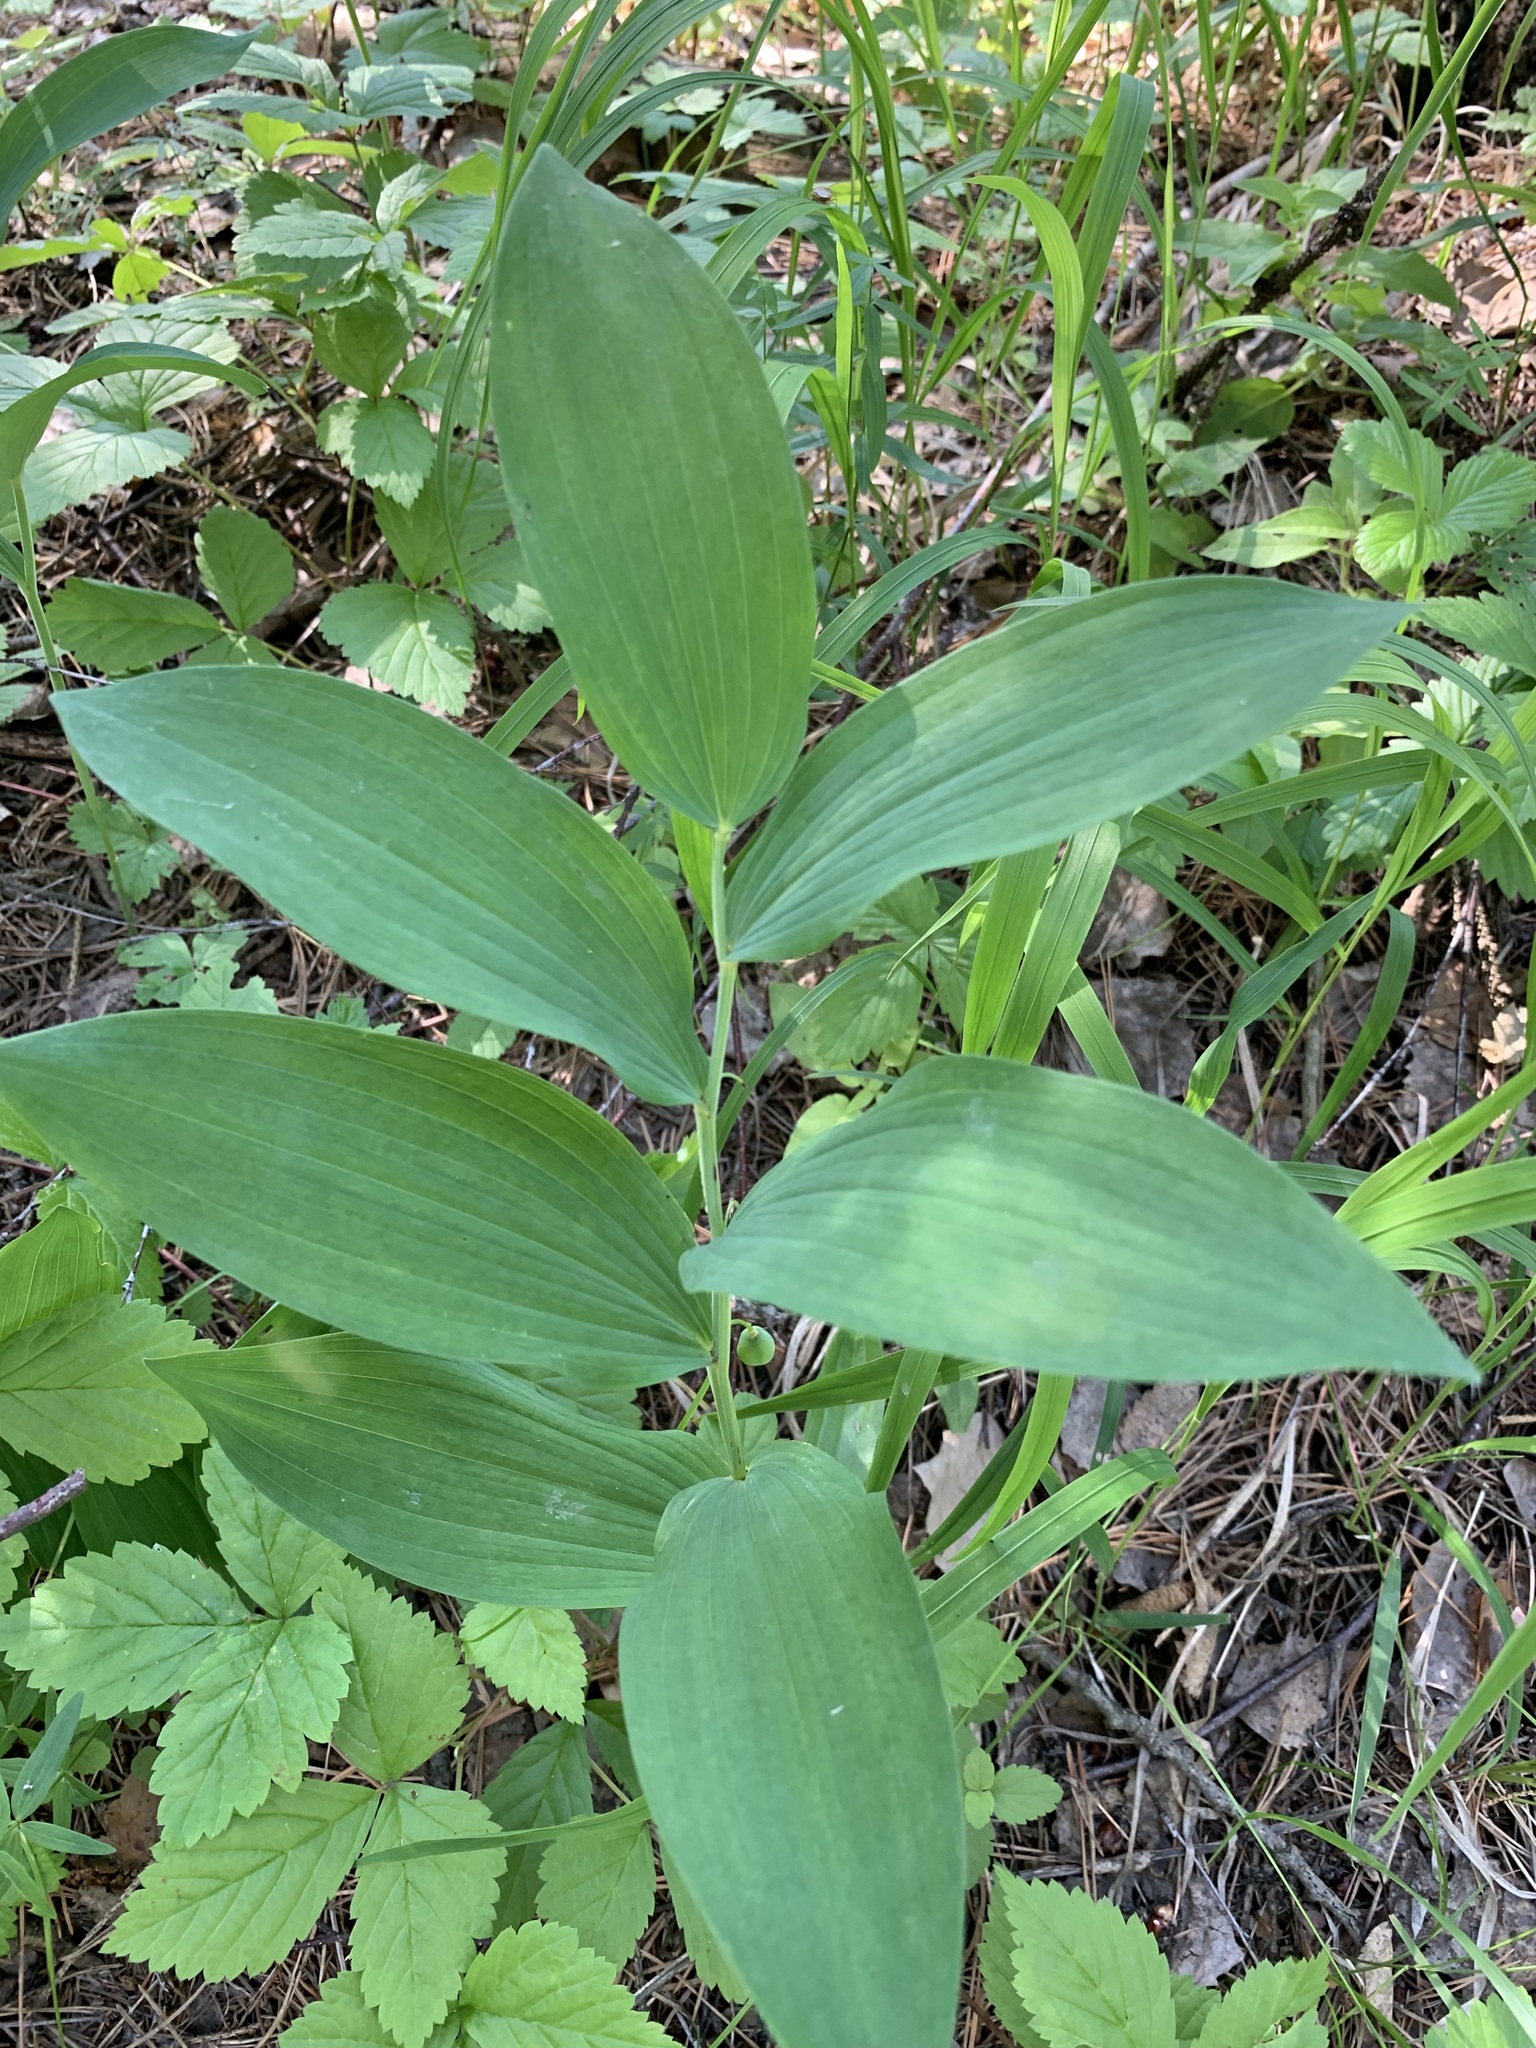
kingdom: Plantae
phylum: Tracheophyta
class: Liliopsida
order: Asparagales
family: Asparagaceae
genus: Polygonatum
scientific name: Polygonatum odoratum
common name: Angular solomon's-seal
